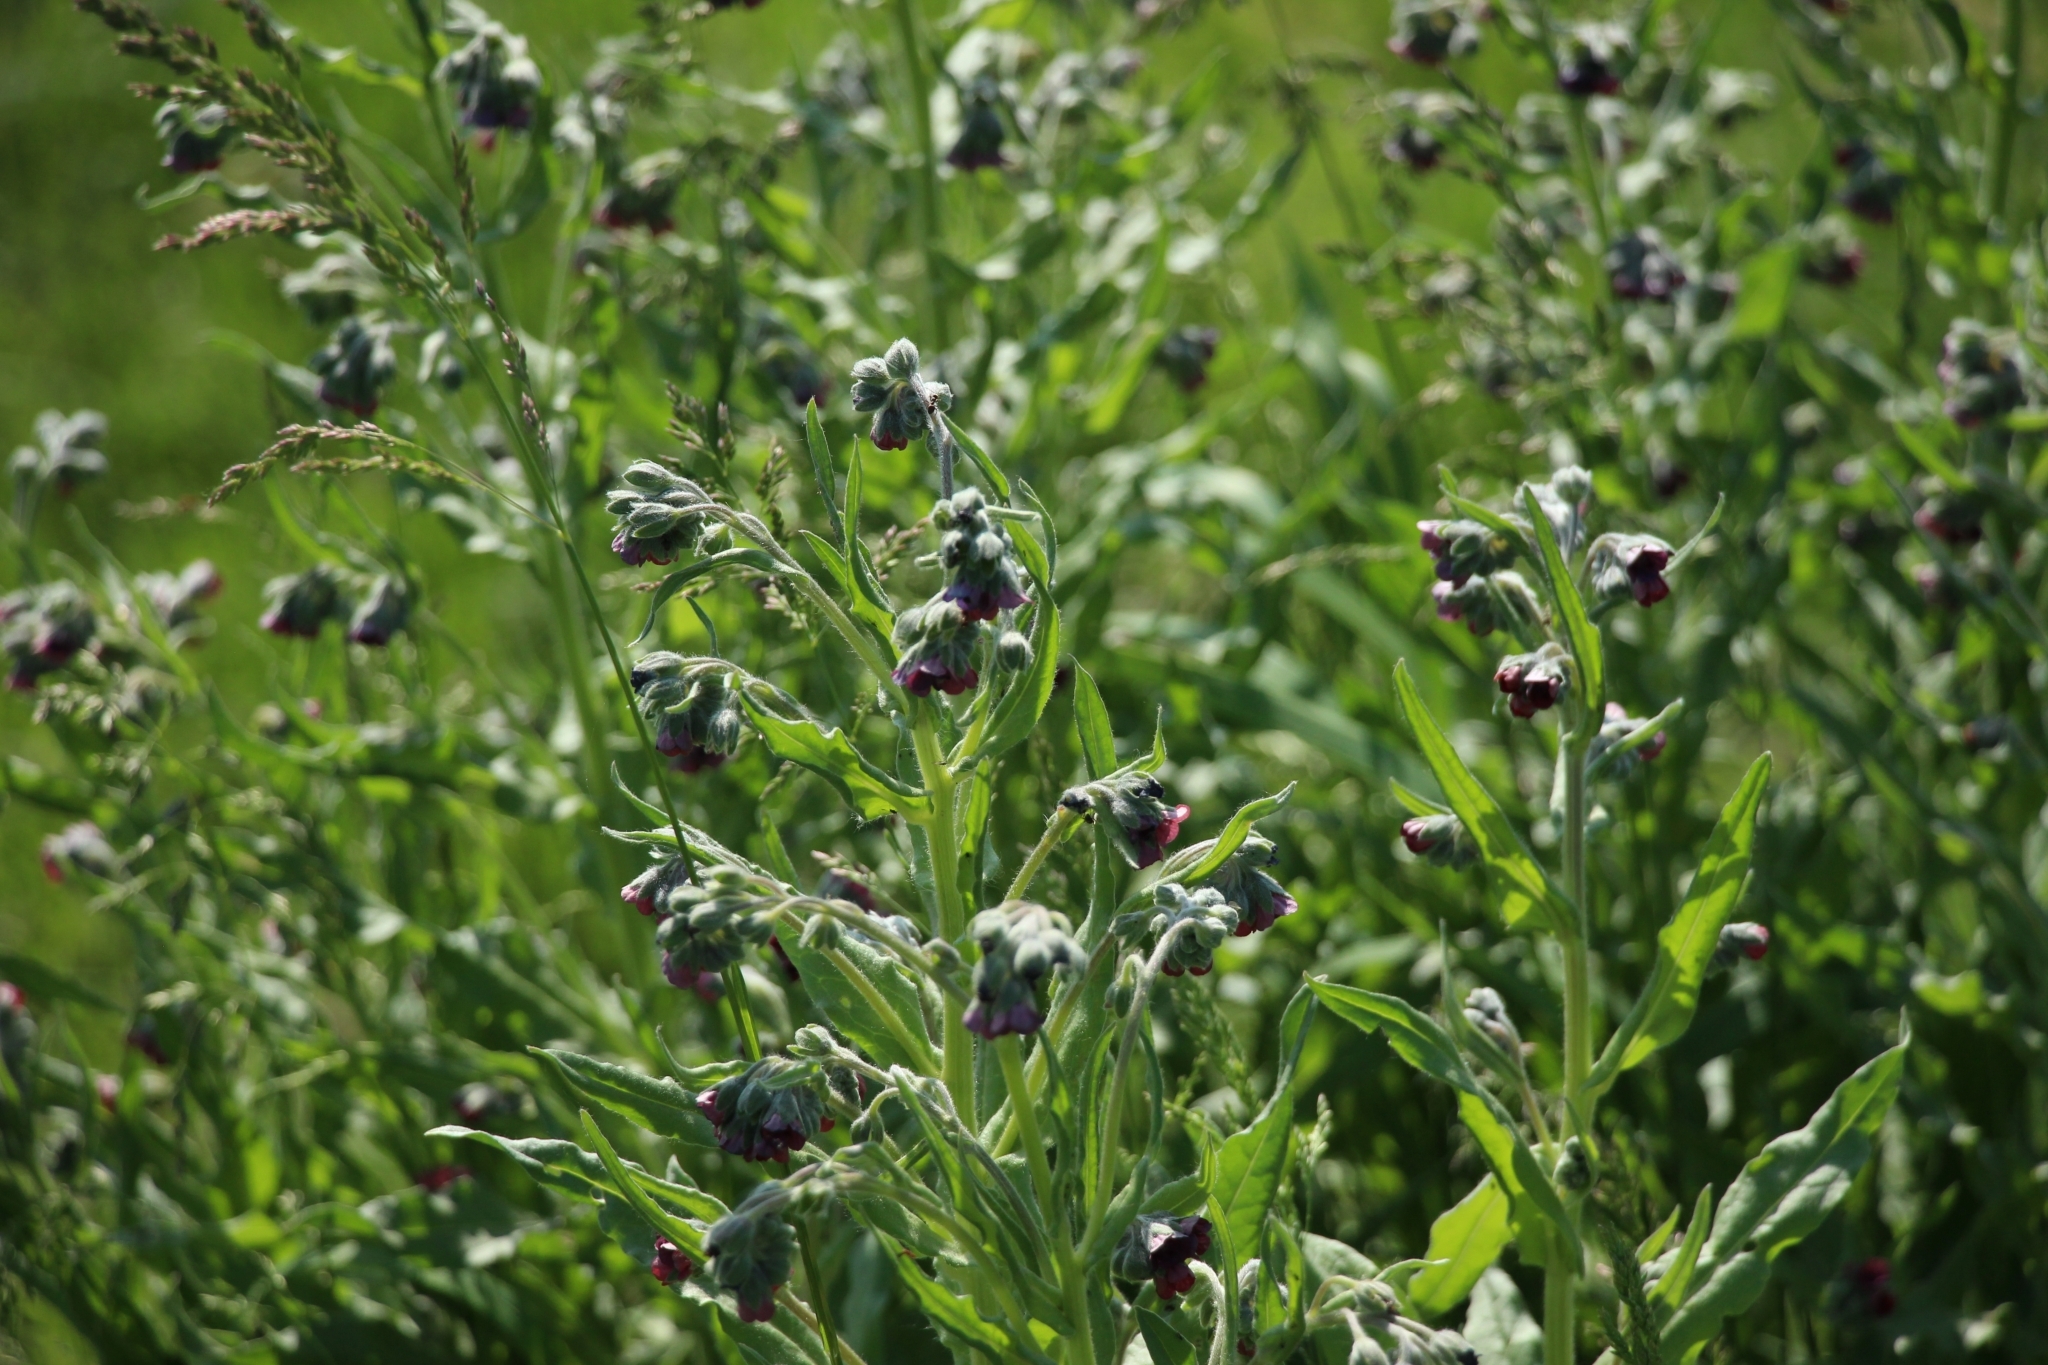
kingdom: Plantae
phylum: Tracheophyta
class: Magnoliopsida
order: Boraginales
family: Boraginaceae
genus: Cynoglossum
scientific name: Cynoglossum officinale
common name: Hound's-tongue
